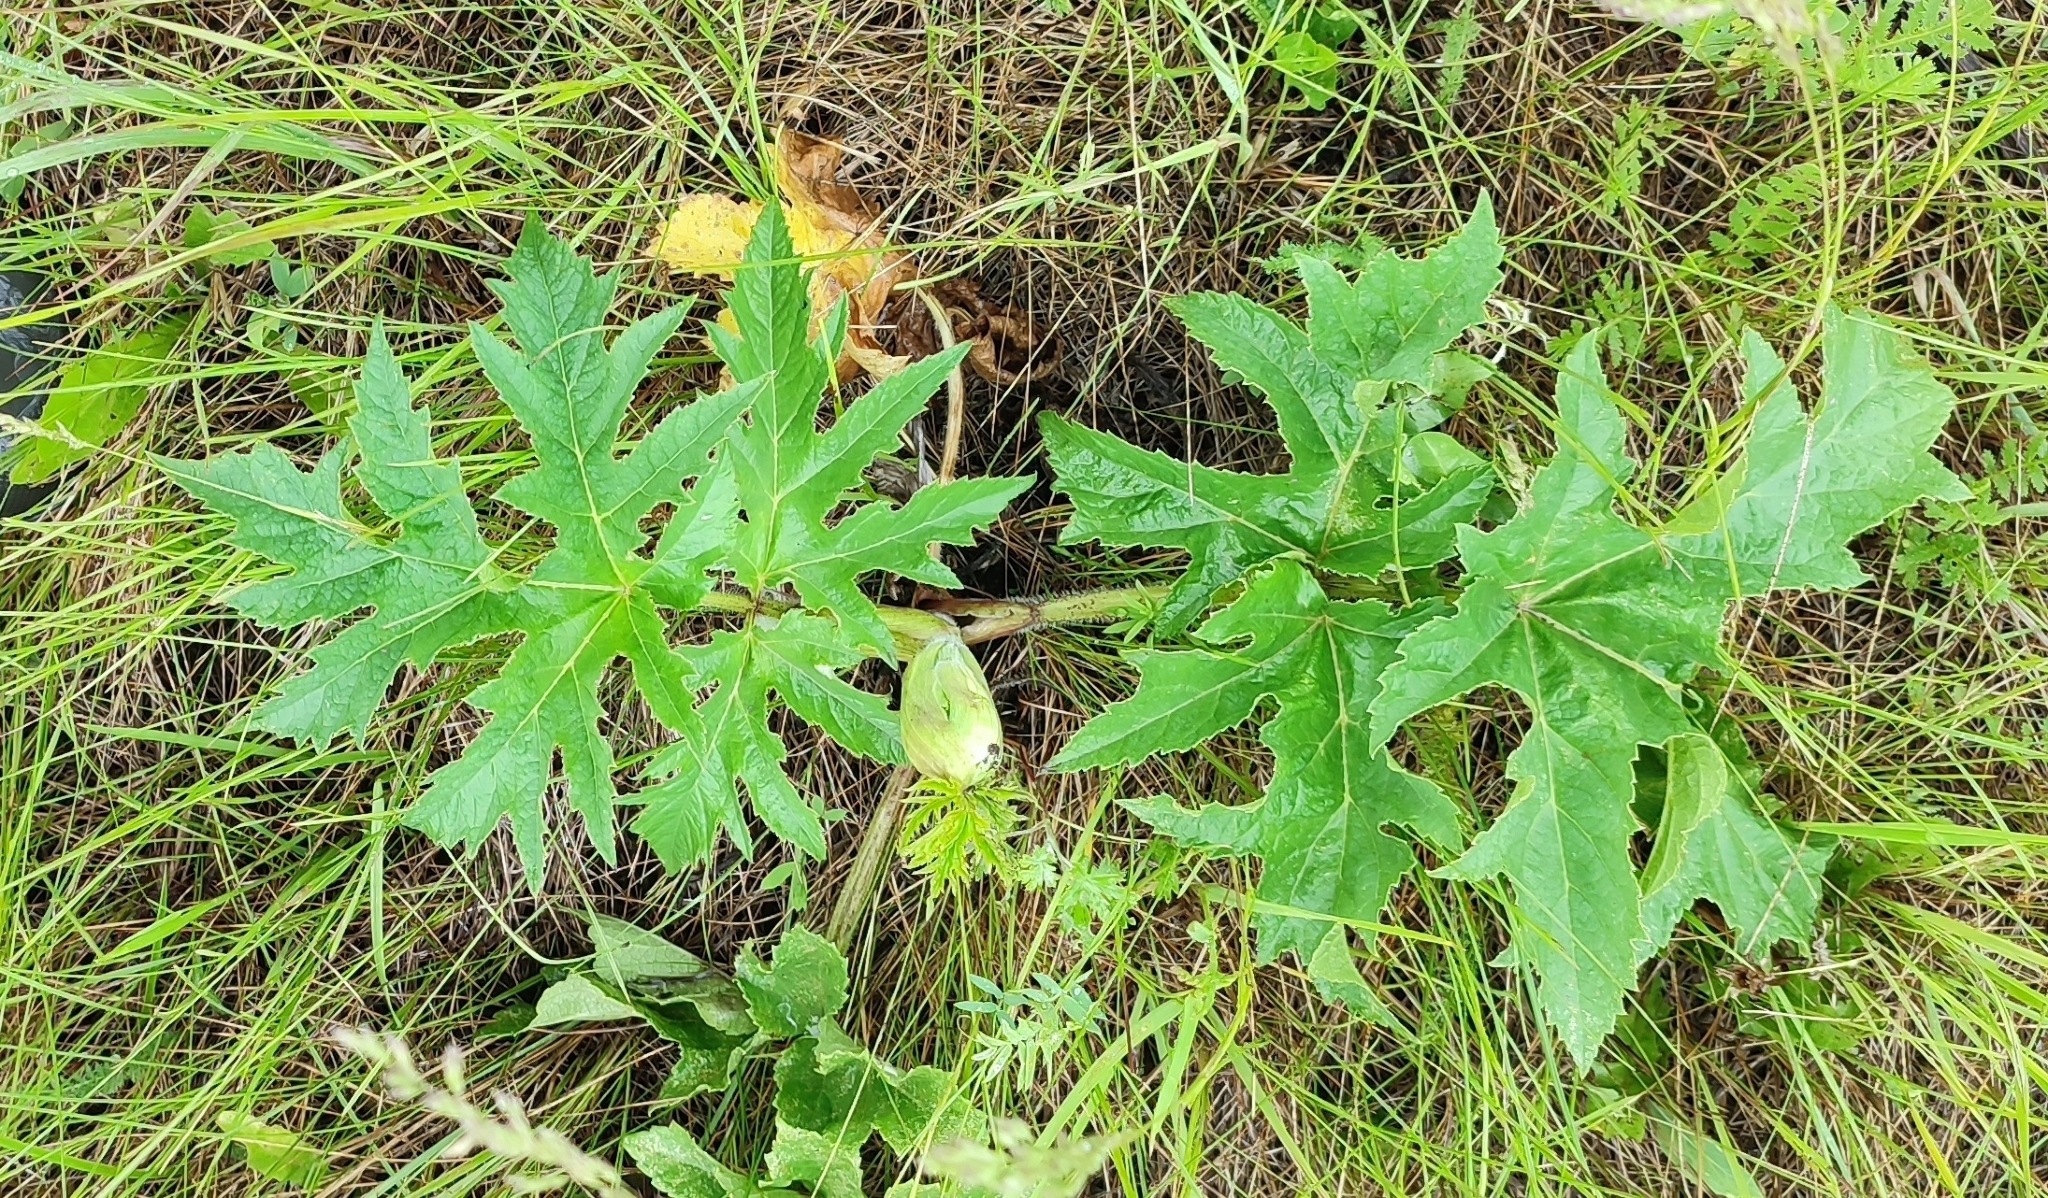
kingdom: Plantae
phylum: Tracheophyta
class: Magnoliopsida
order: Apiales
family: Apiaceae
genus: Heracleum
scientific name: Heracleum sphondylium
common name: Hogweed
